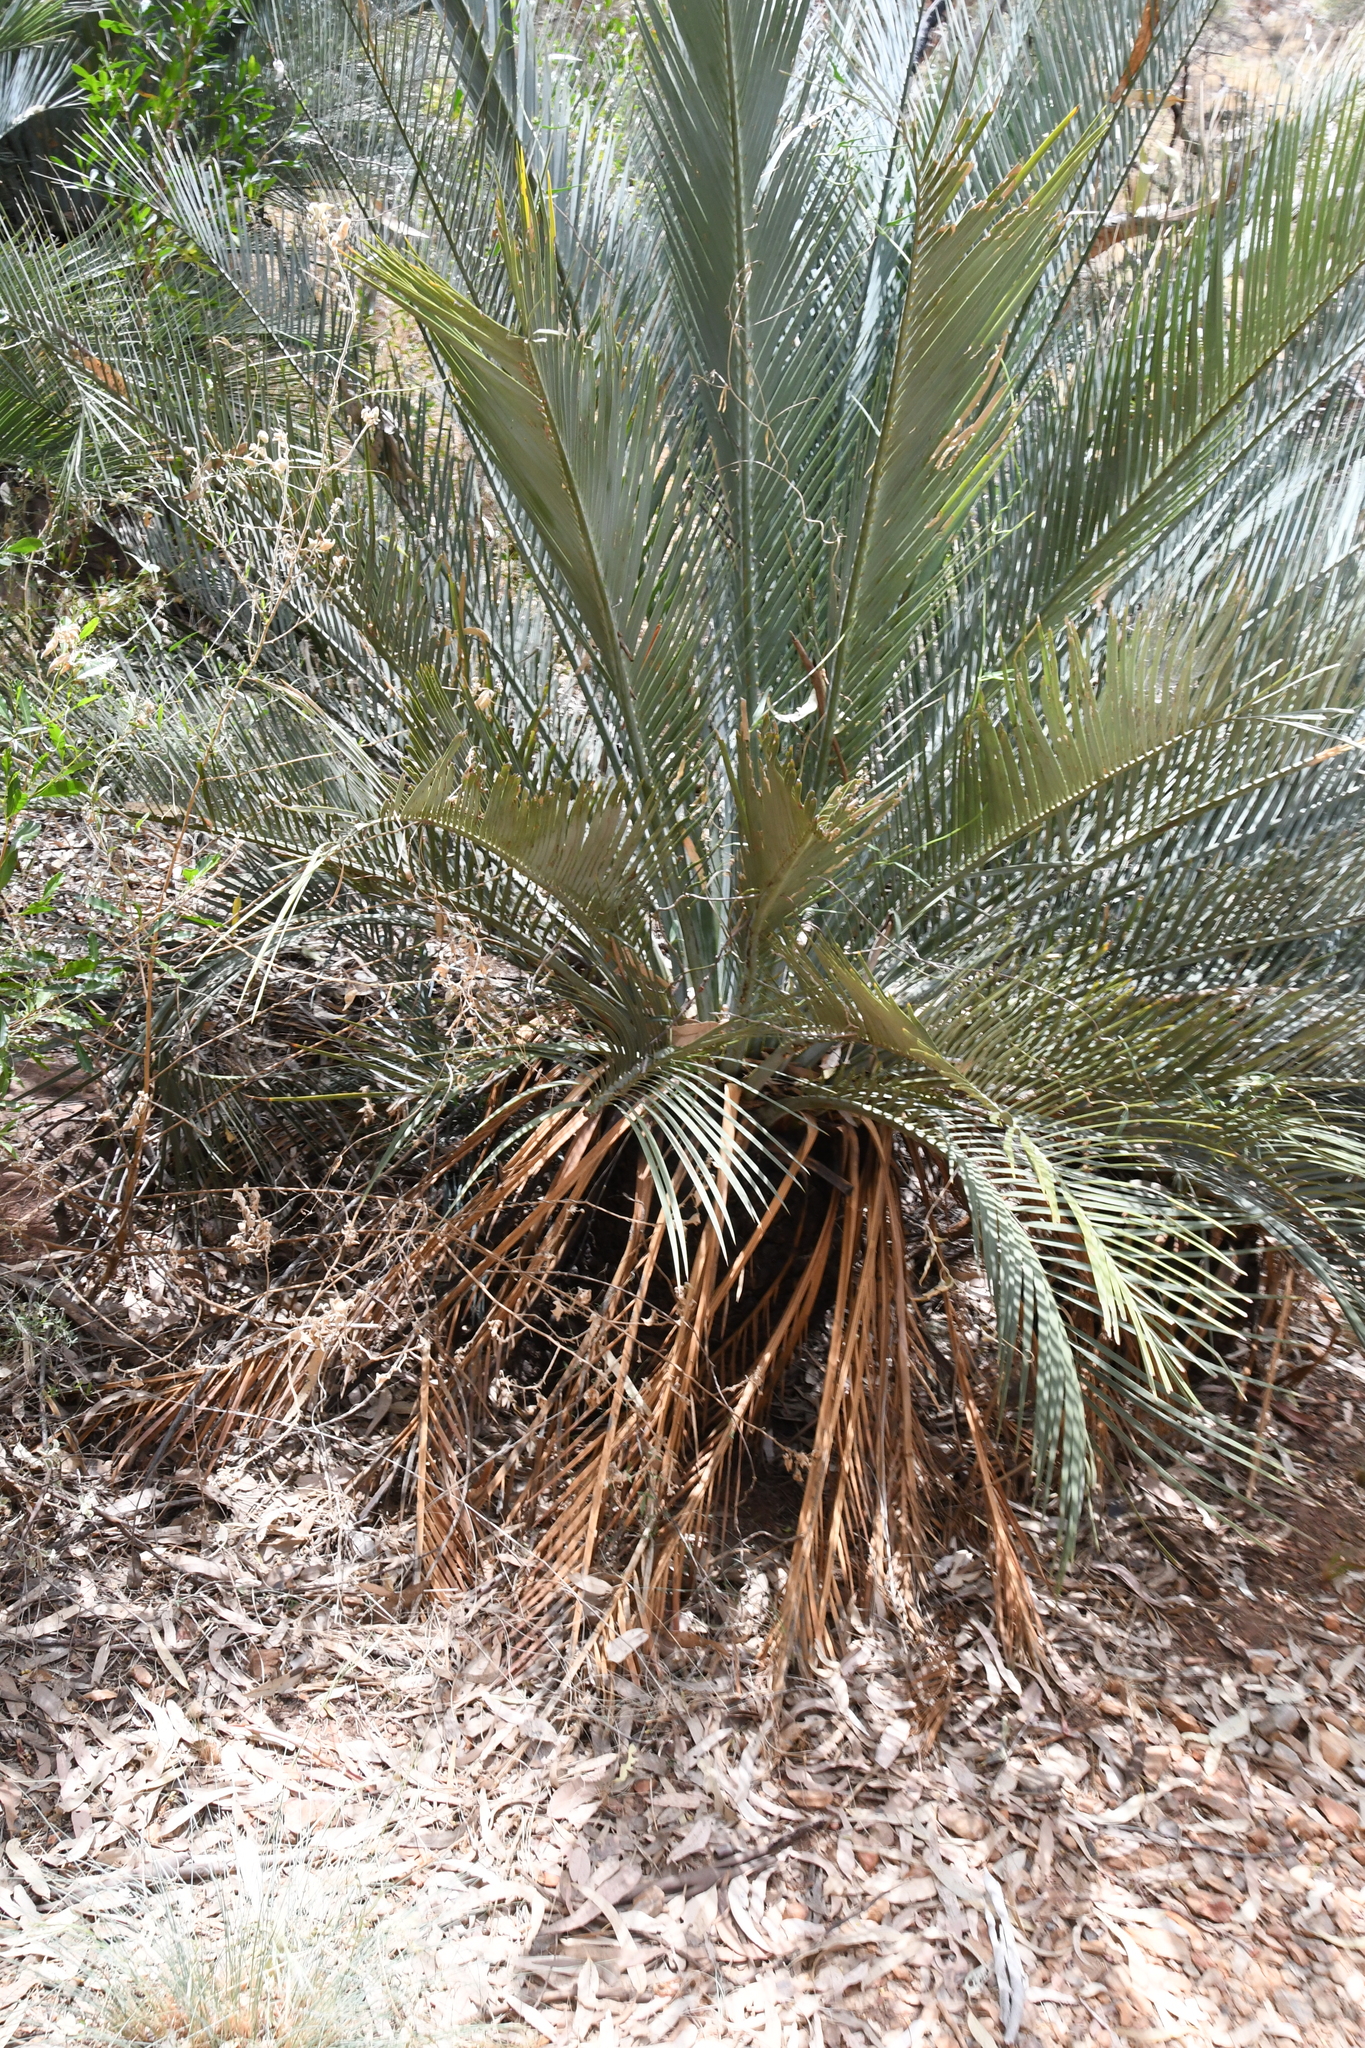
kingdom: Plantae
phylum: Tracheophyta
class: Cycadopsida
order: Cycadales
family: Zamiaceae
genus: Macrozamia
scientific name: Macrozamia macdonnellii
